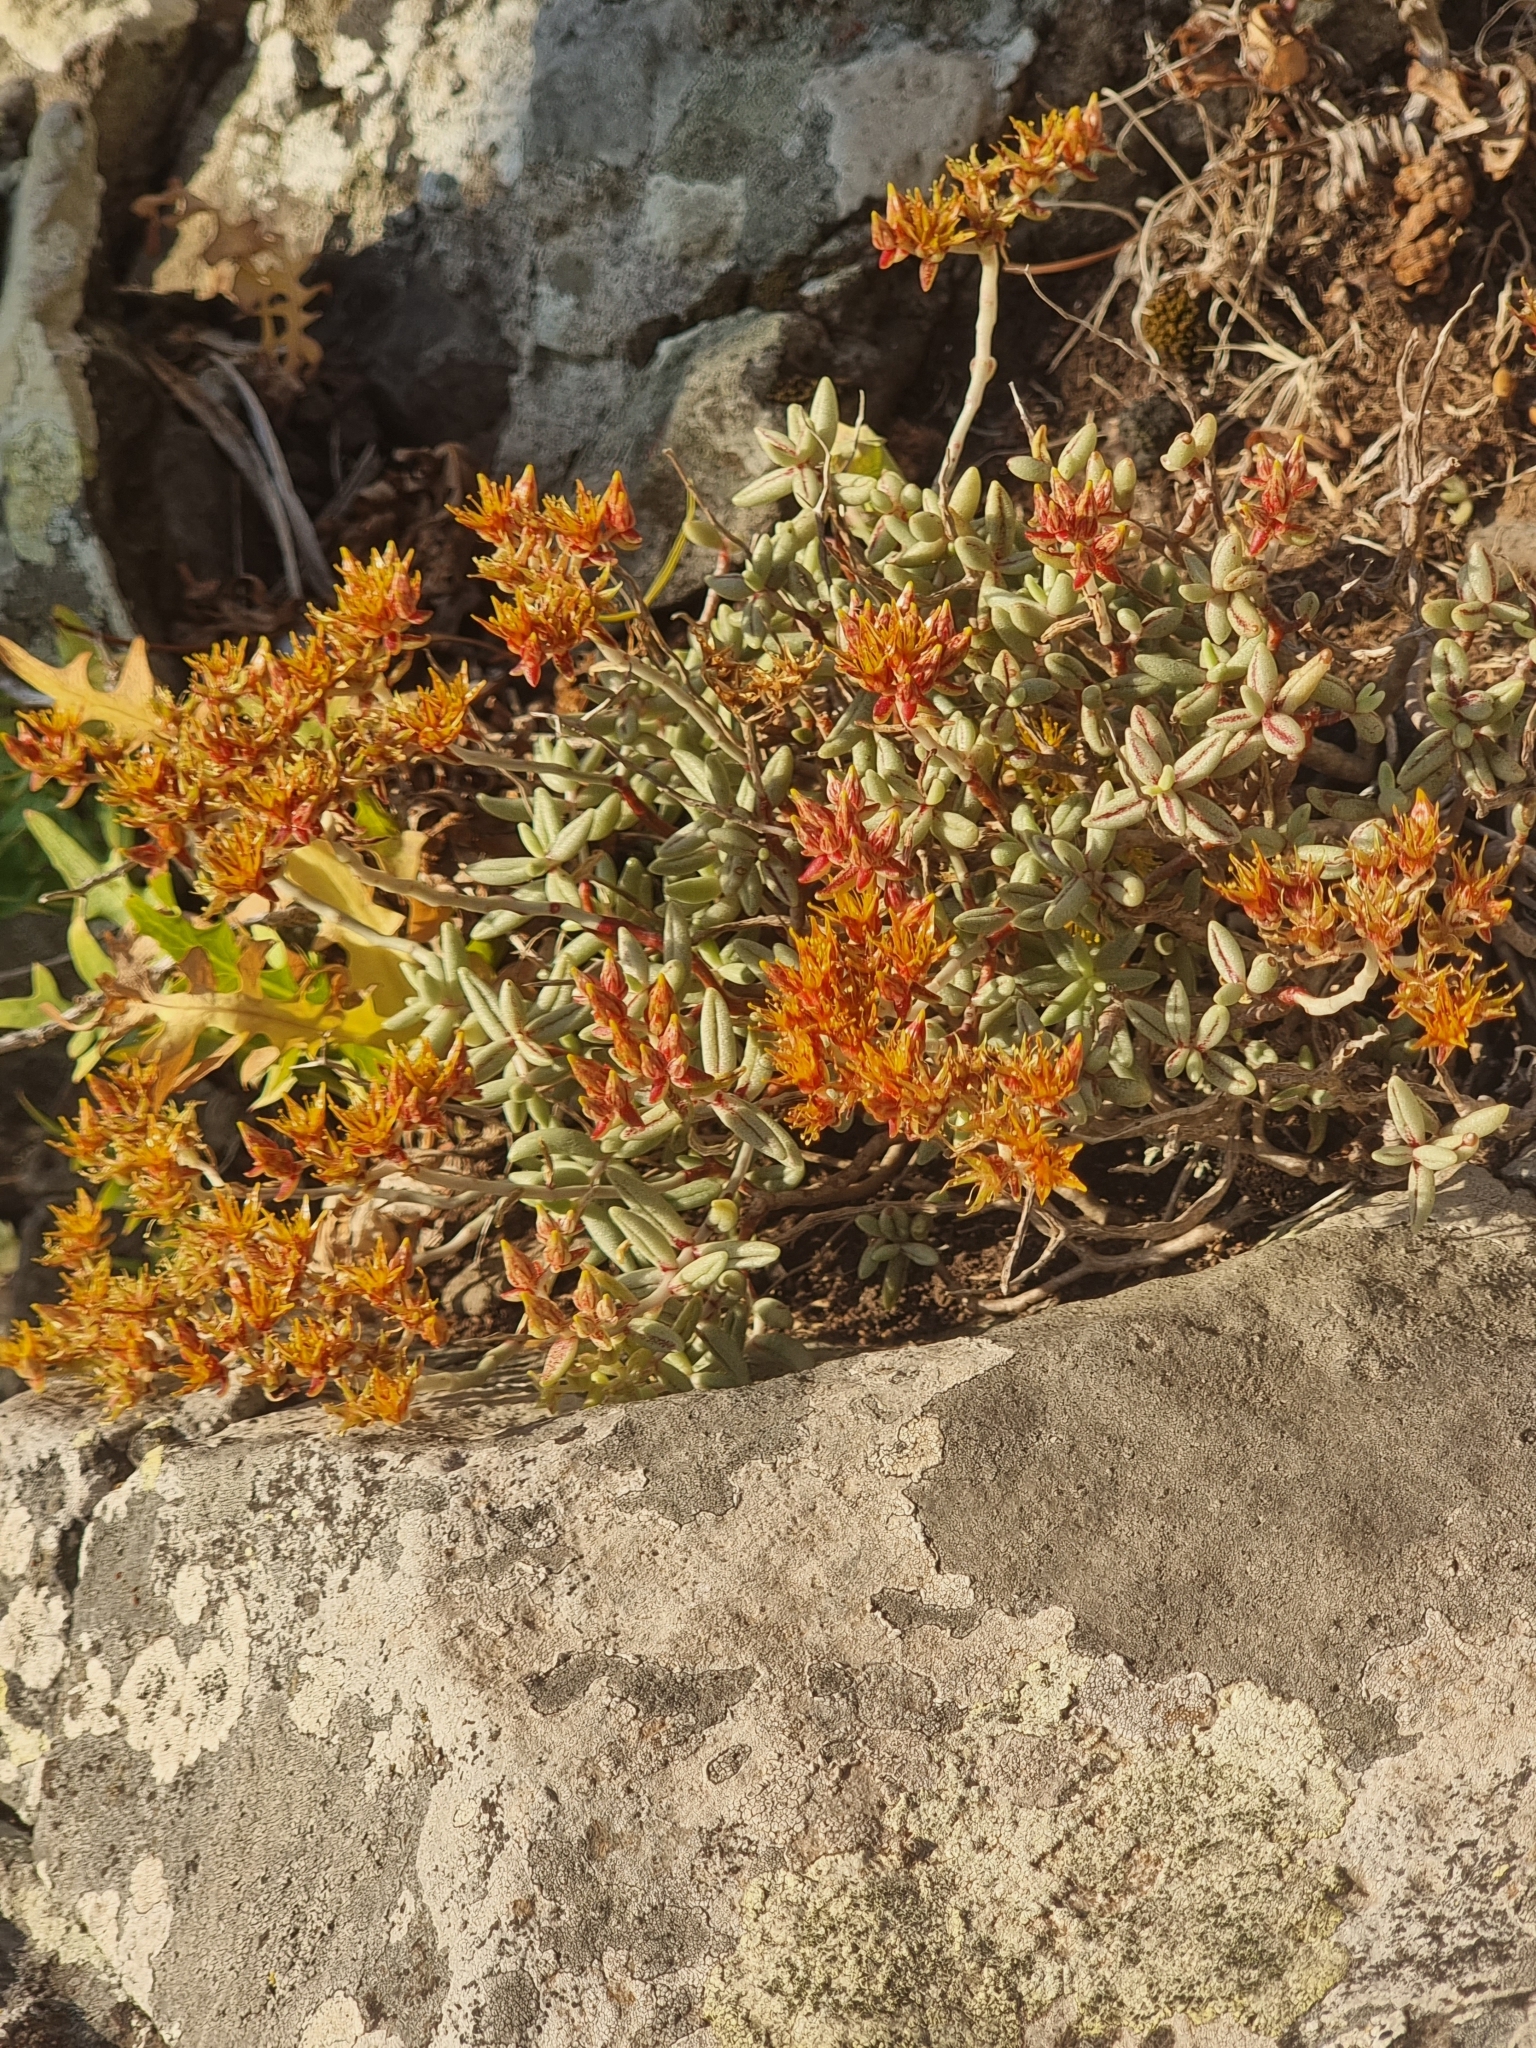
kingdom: Plantae
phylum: Tracheophyta
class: Magnoliopsida
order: Saxifragales
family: Crassulaceae
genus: Sedum
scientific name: Sedum fusiforme
